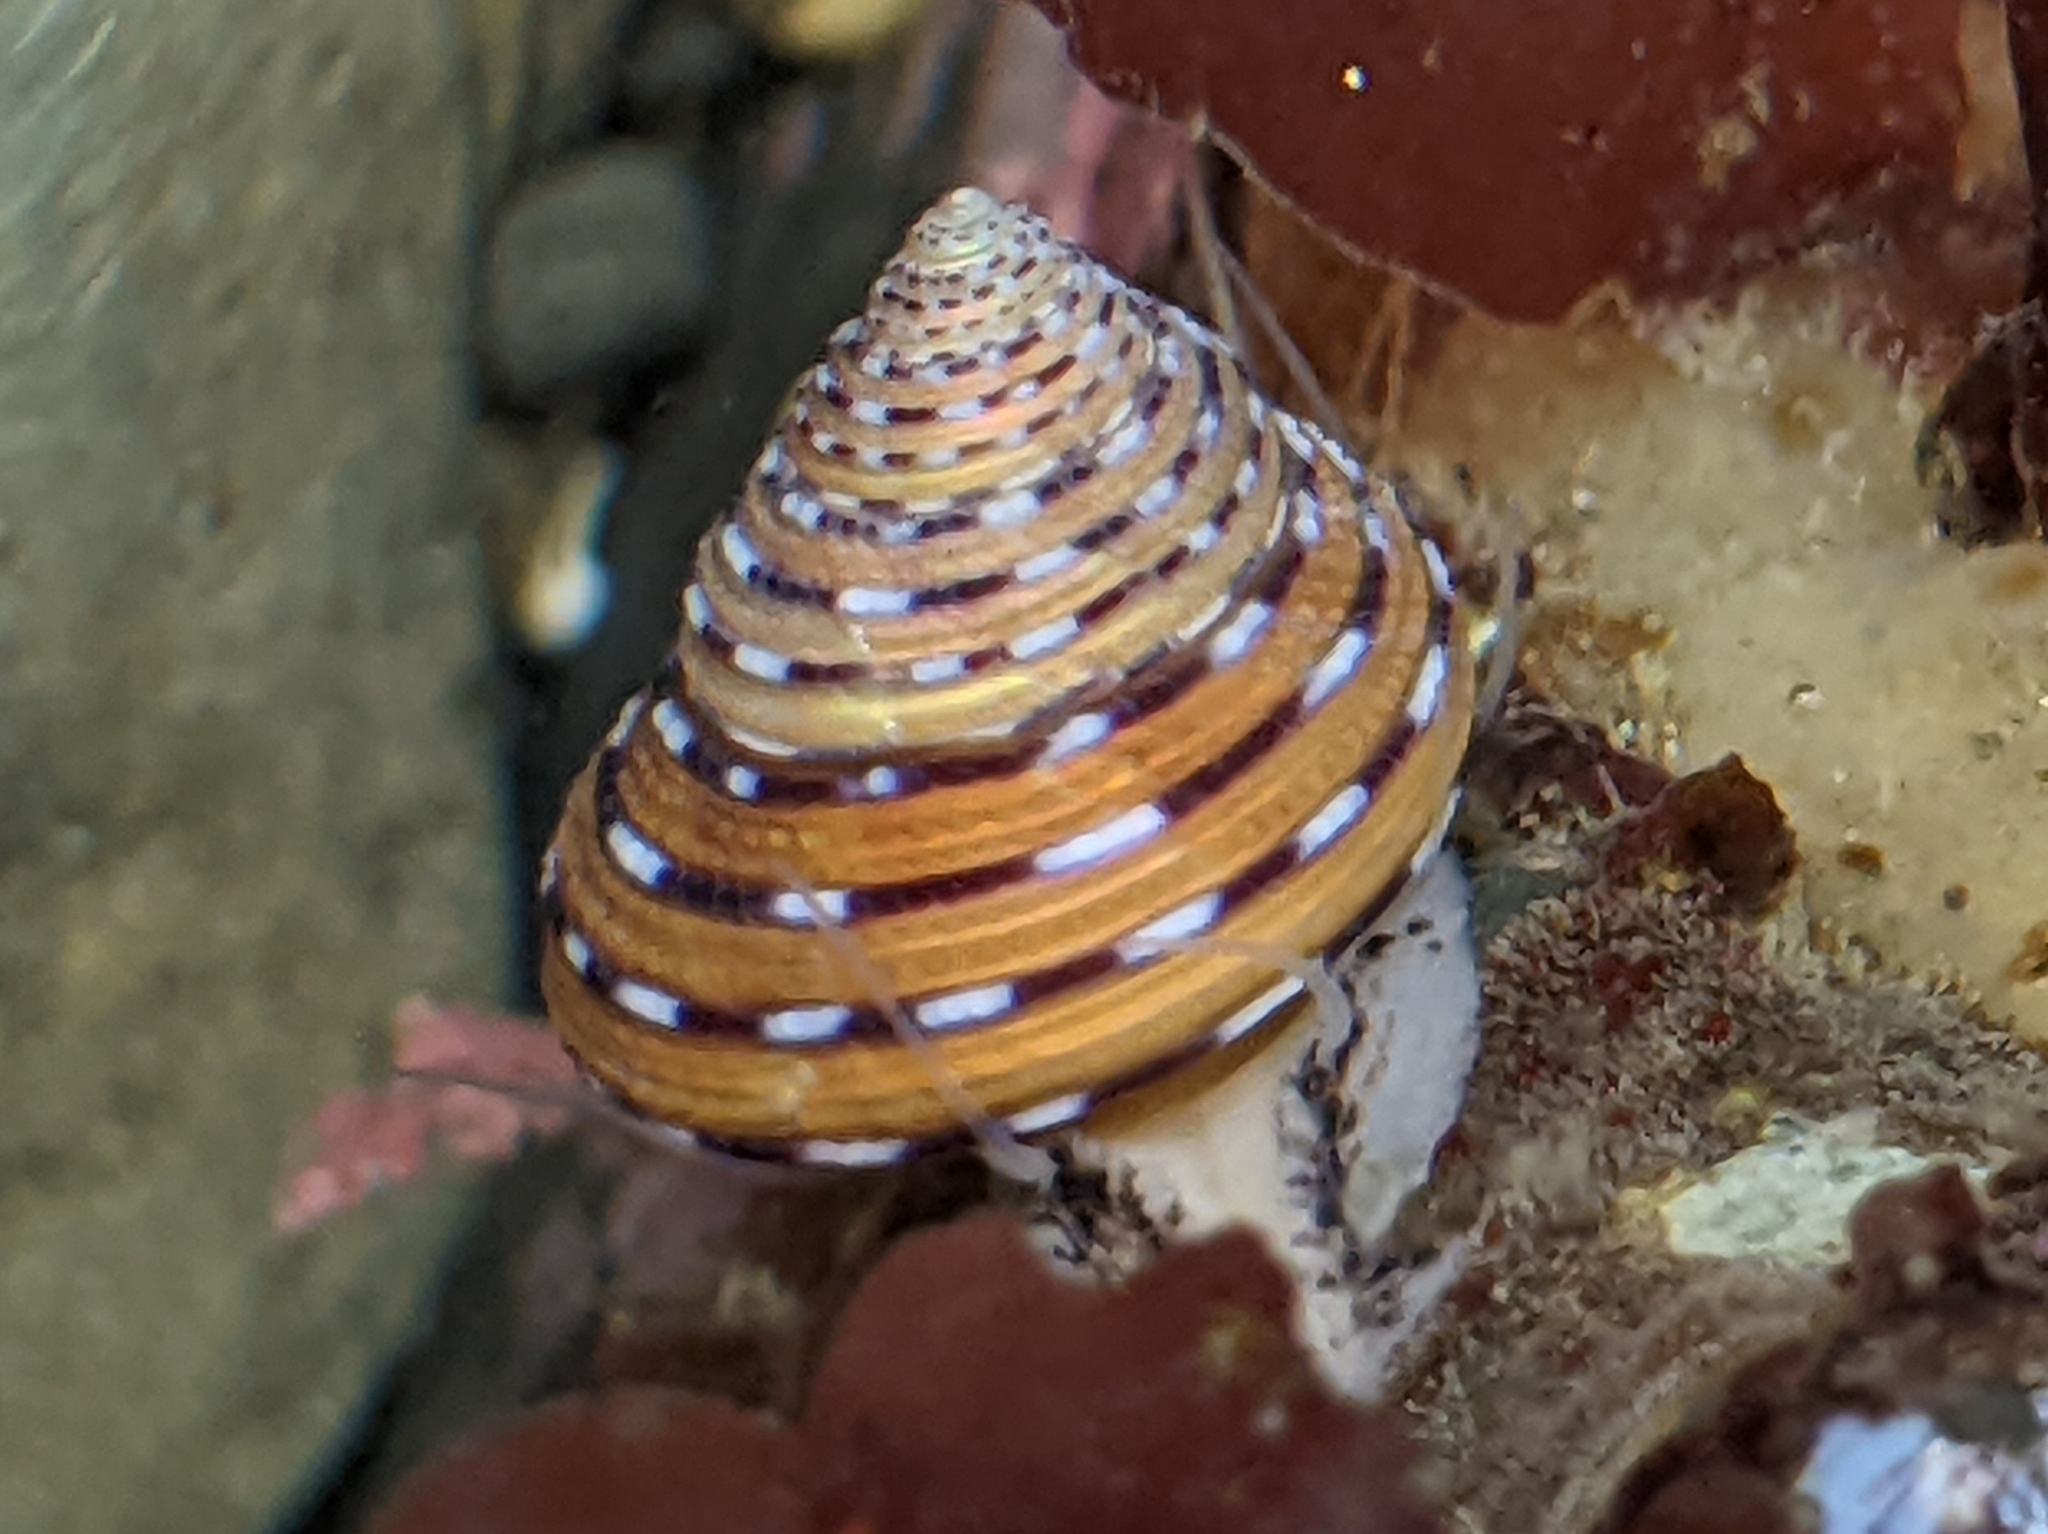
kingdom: Animalia
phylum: Mollusca
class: Gastropoda
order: Trochida
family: Calliostomatidae
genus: Calliostoma
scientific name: Calliostoma tricolor
